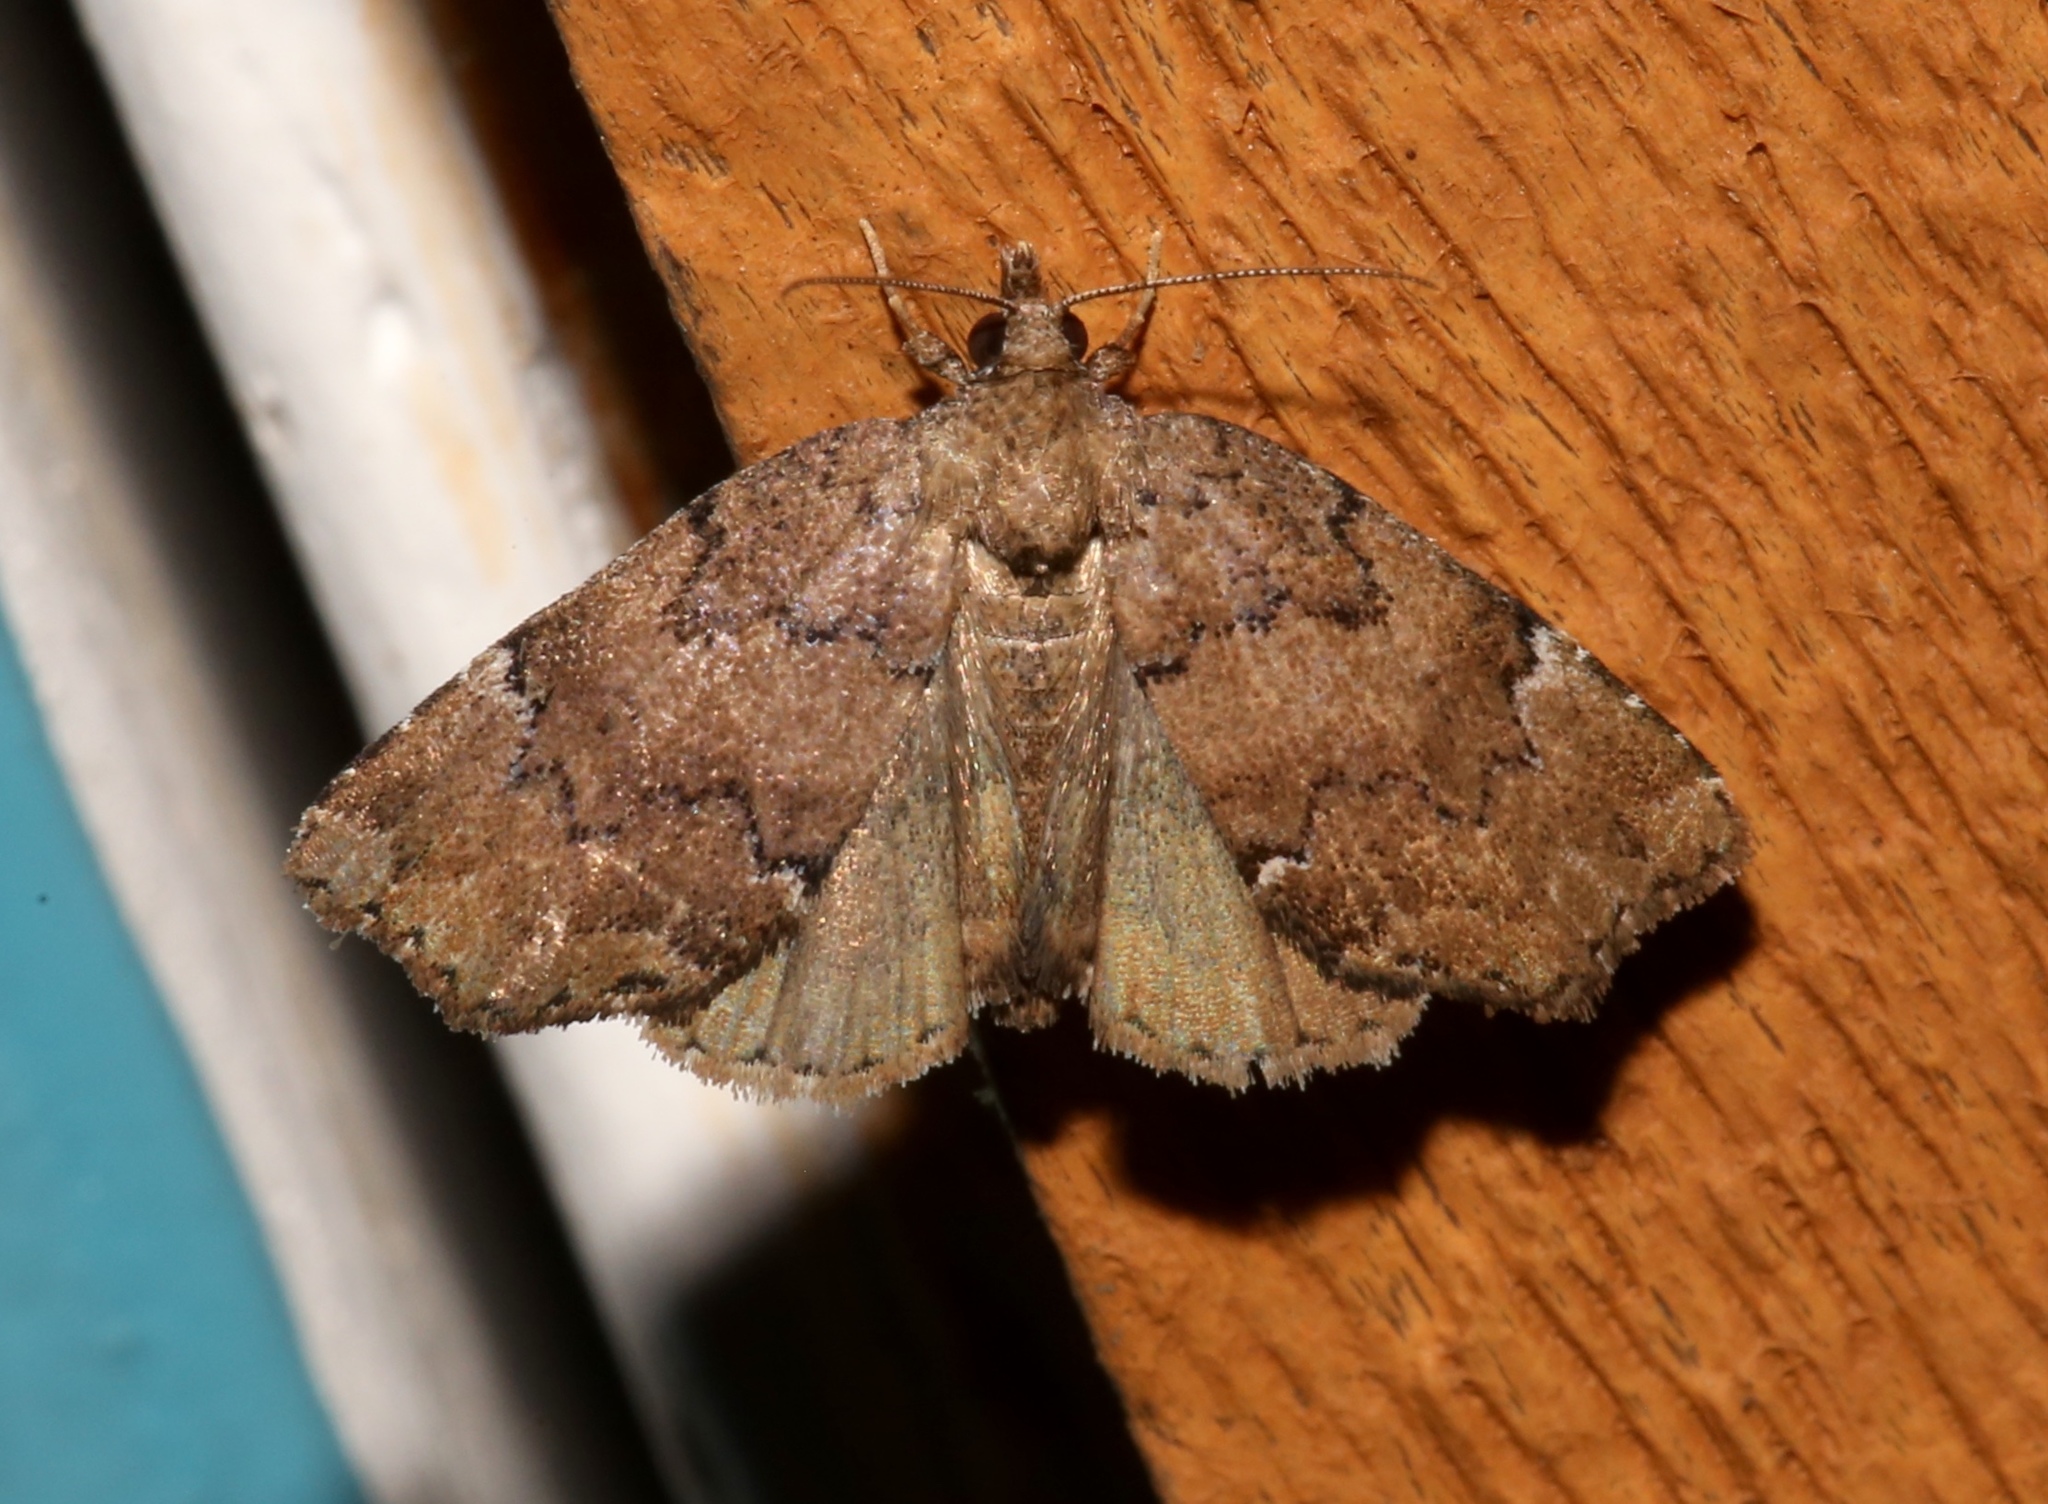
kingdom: Animalia
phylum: Arthropoda
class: Insecta
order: Lepidoptera
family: Erebidae
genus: Cutina
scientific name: Cutina aluticolor
